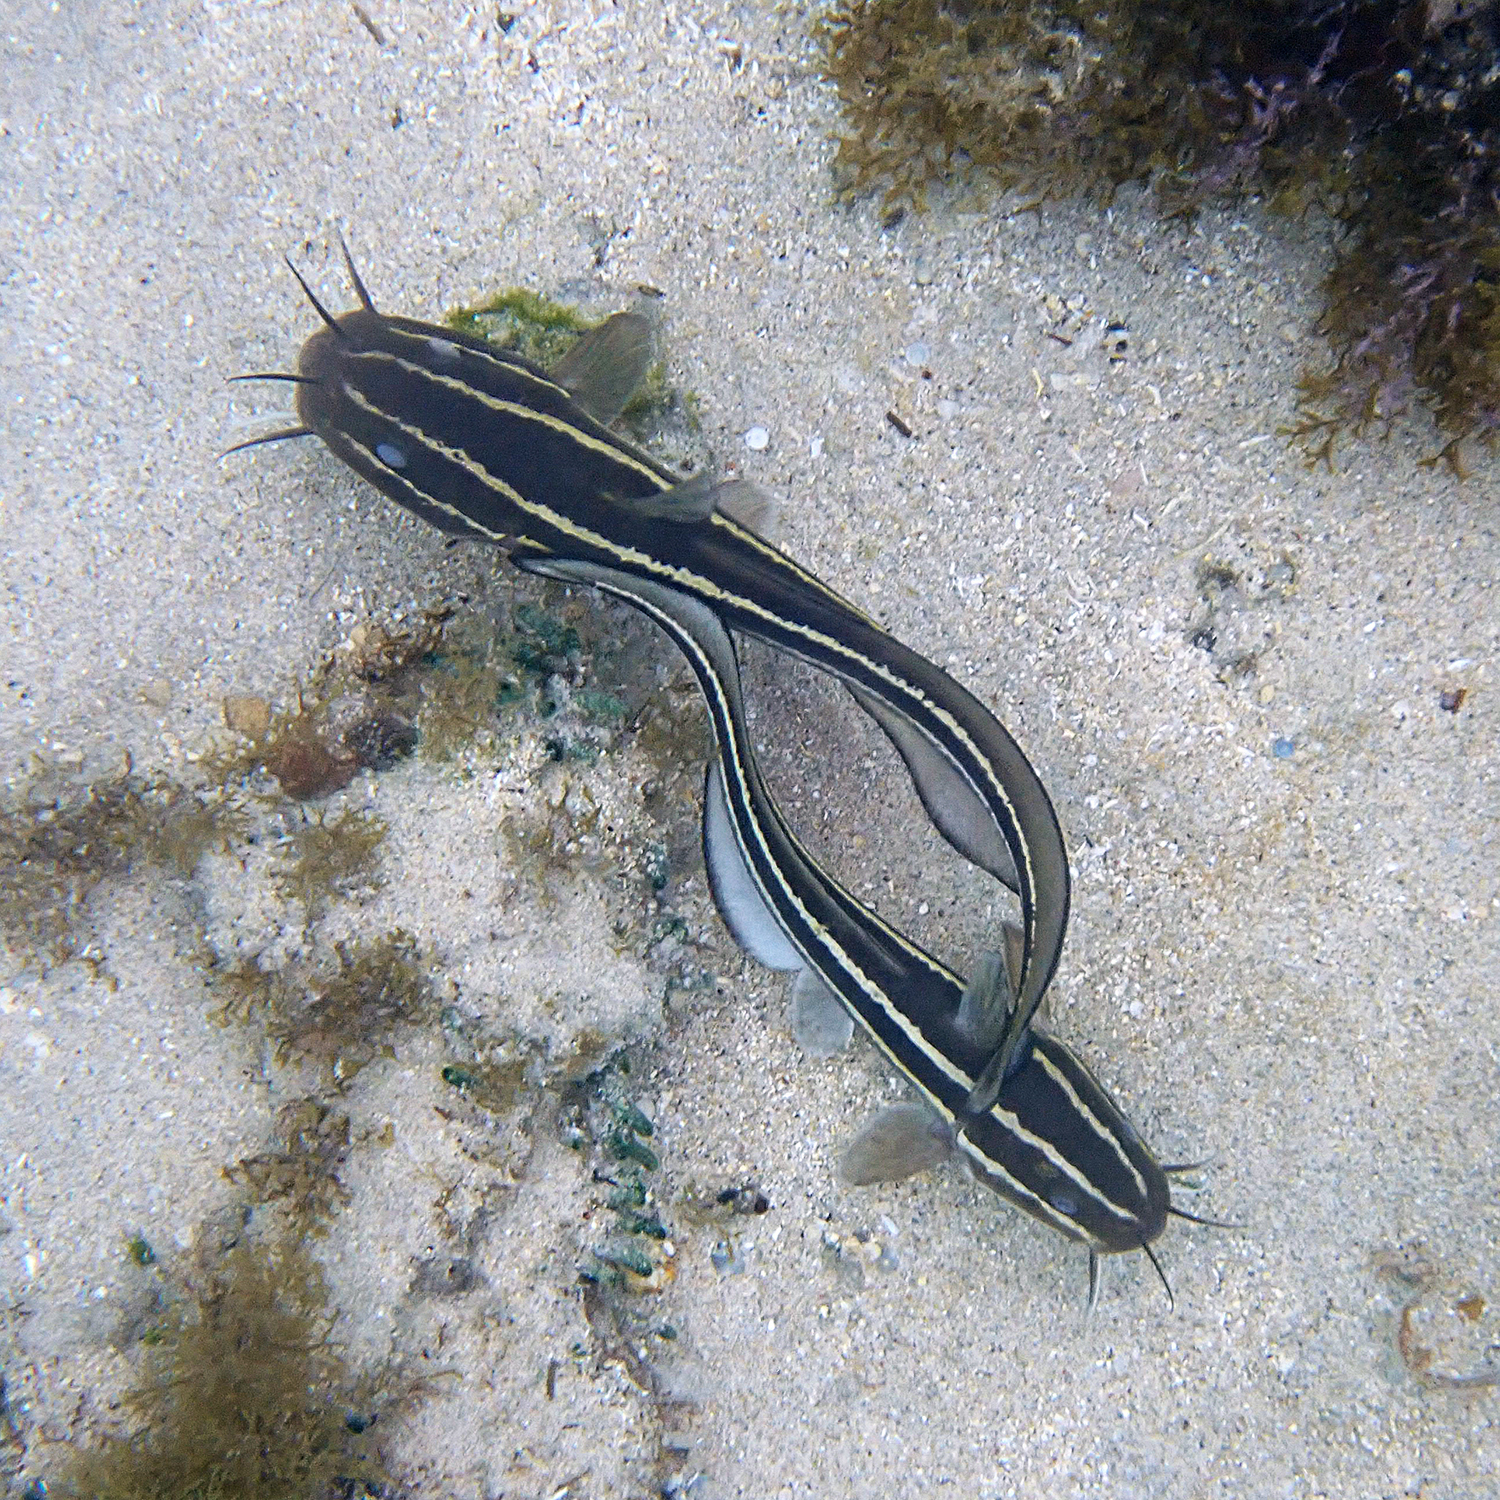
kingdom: Animalia
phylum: Chordata
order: Siluriformes
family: Plotosidae
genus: Plotosus
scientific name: Plotosus lineatus
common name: Striped eel catfish
